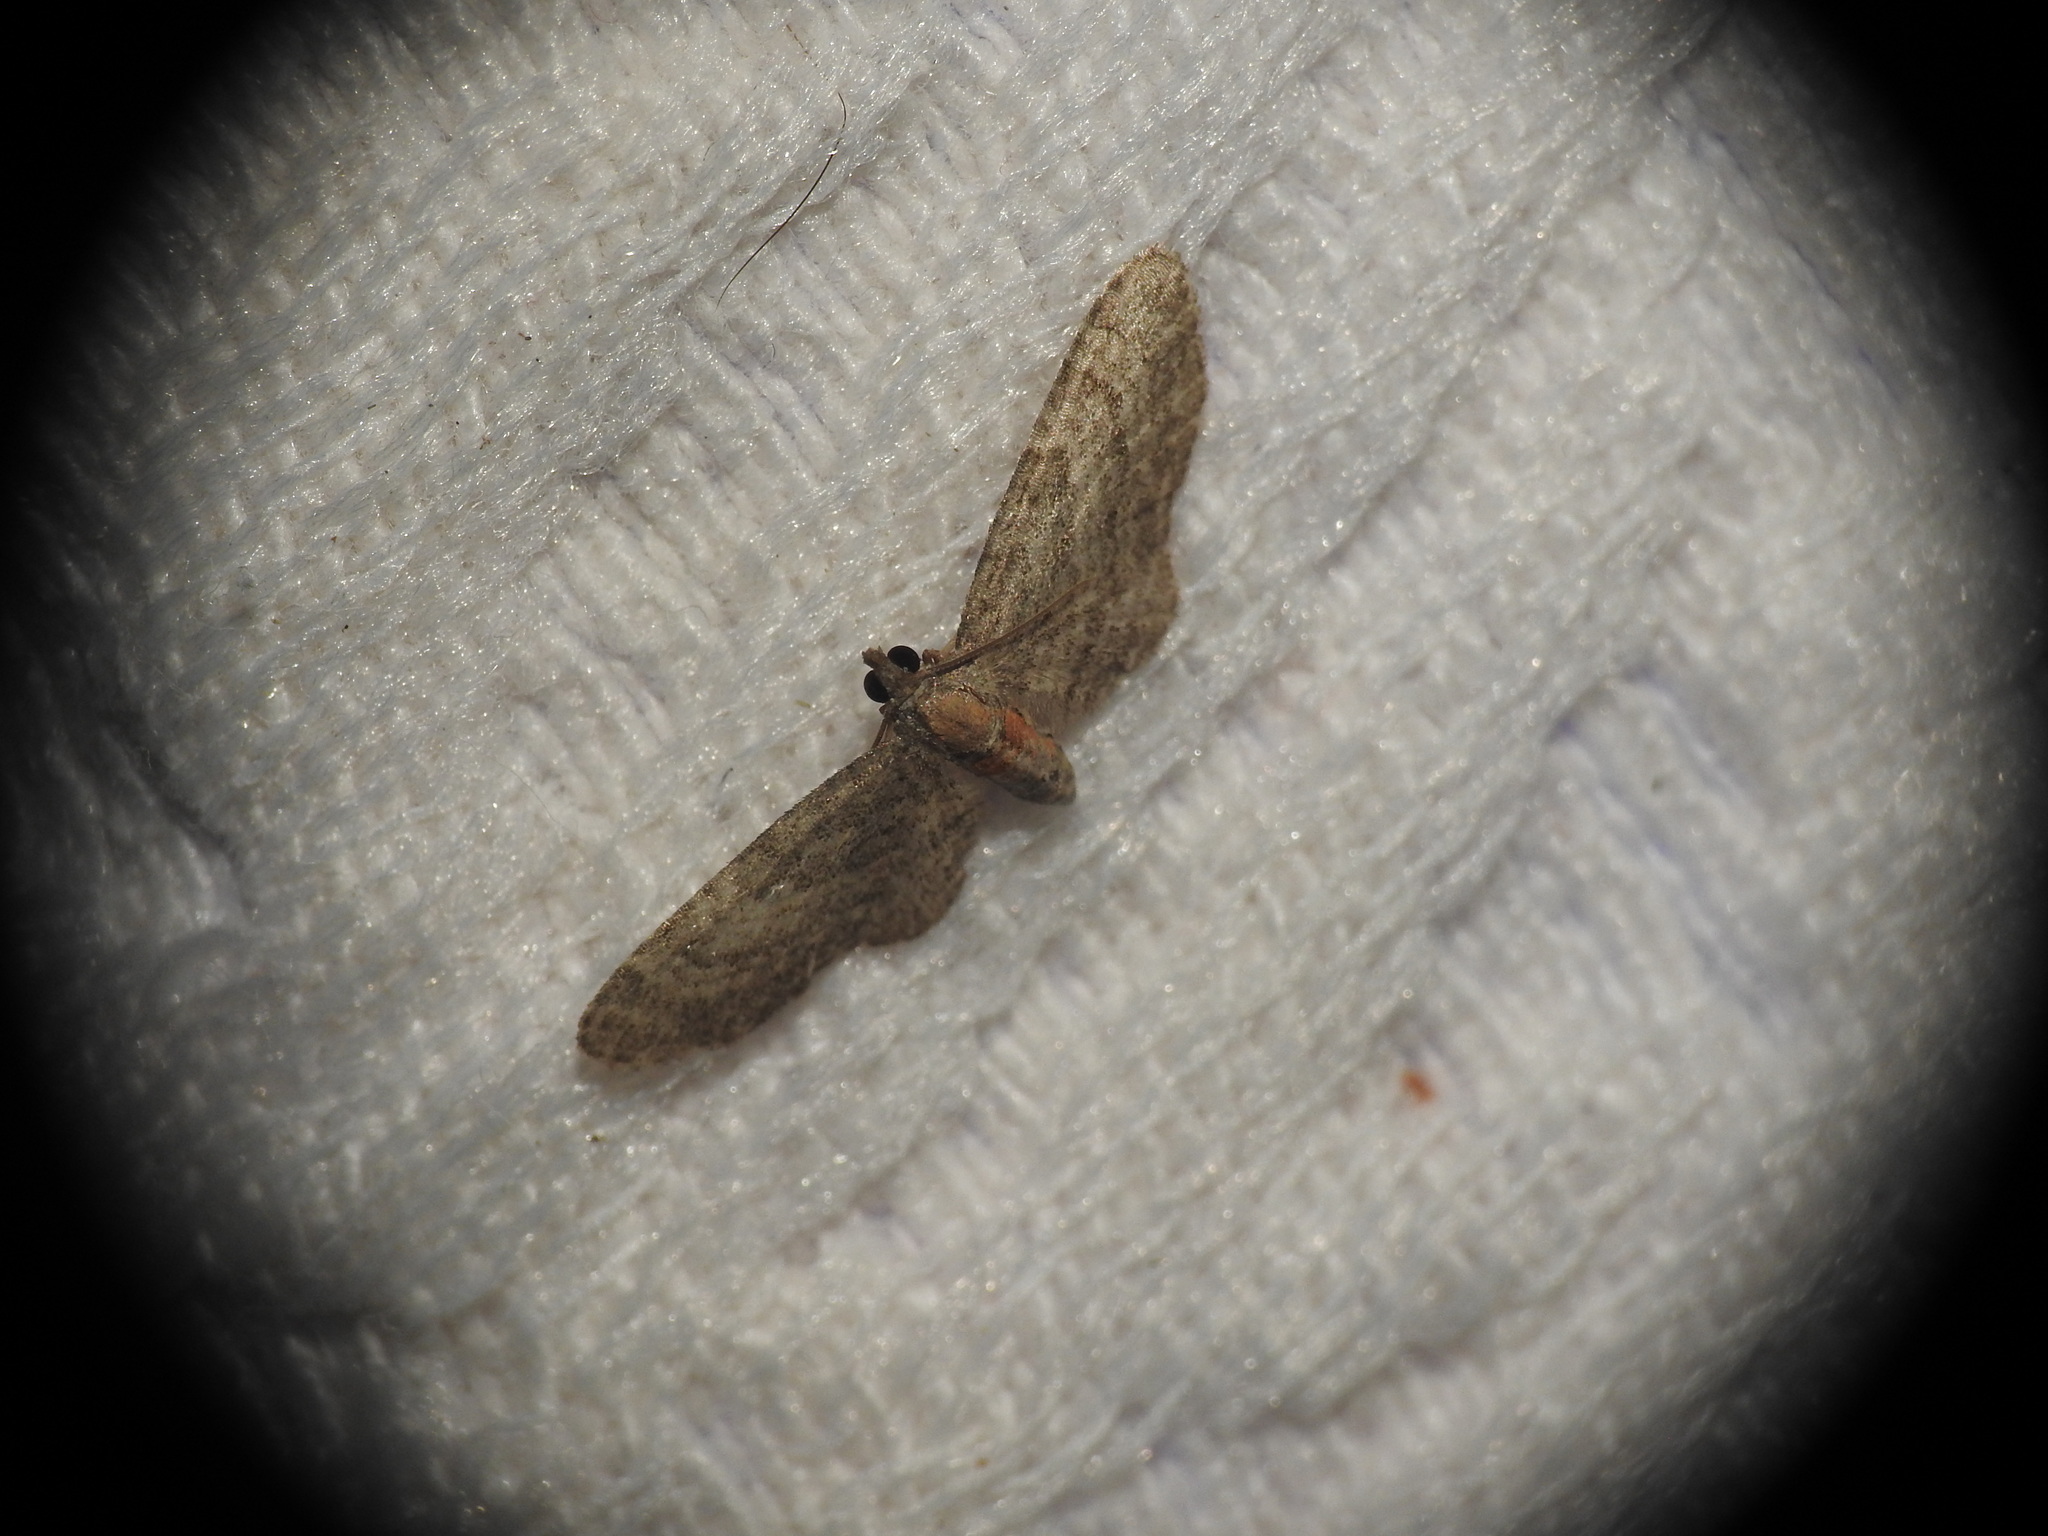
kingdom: Animalia
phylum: Arthropoda
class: Insecta
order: Lepidoptera
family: Geometridae
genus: Eupithecia
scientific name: Eupithecia haworthiata
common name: Haworth's pug
